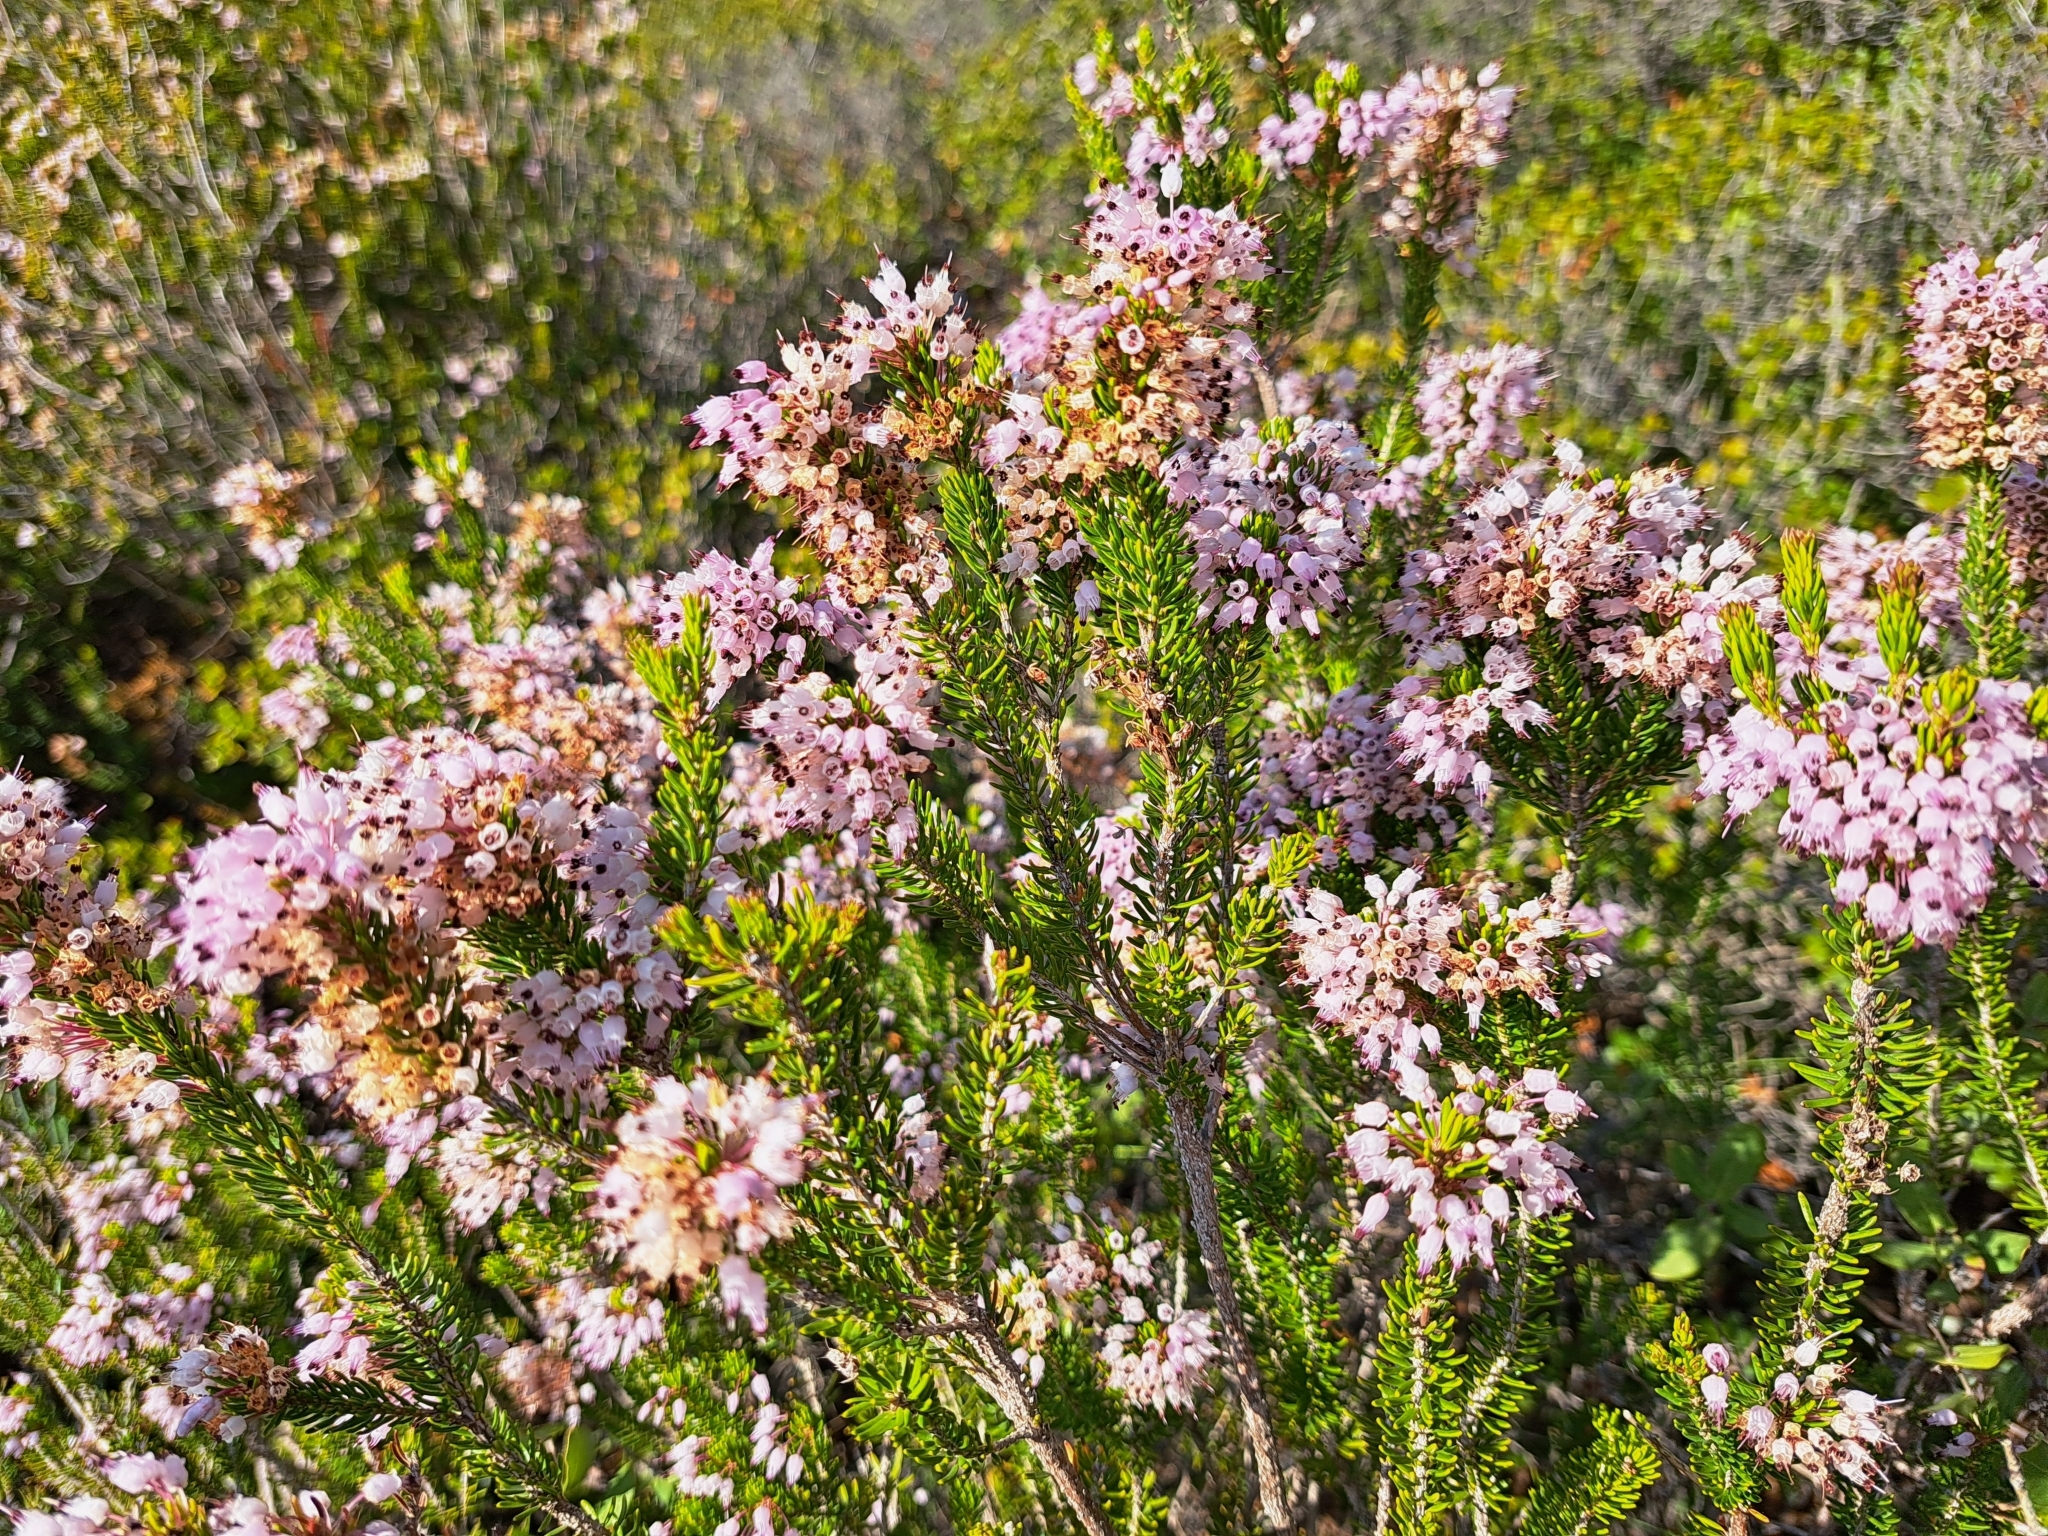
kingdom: Plantae
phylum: Tracheophyta
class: Magnoliopsida
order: Ericales
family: Ericaceae
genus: Erica
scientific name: Erica multiflora
